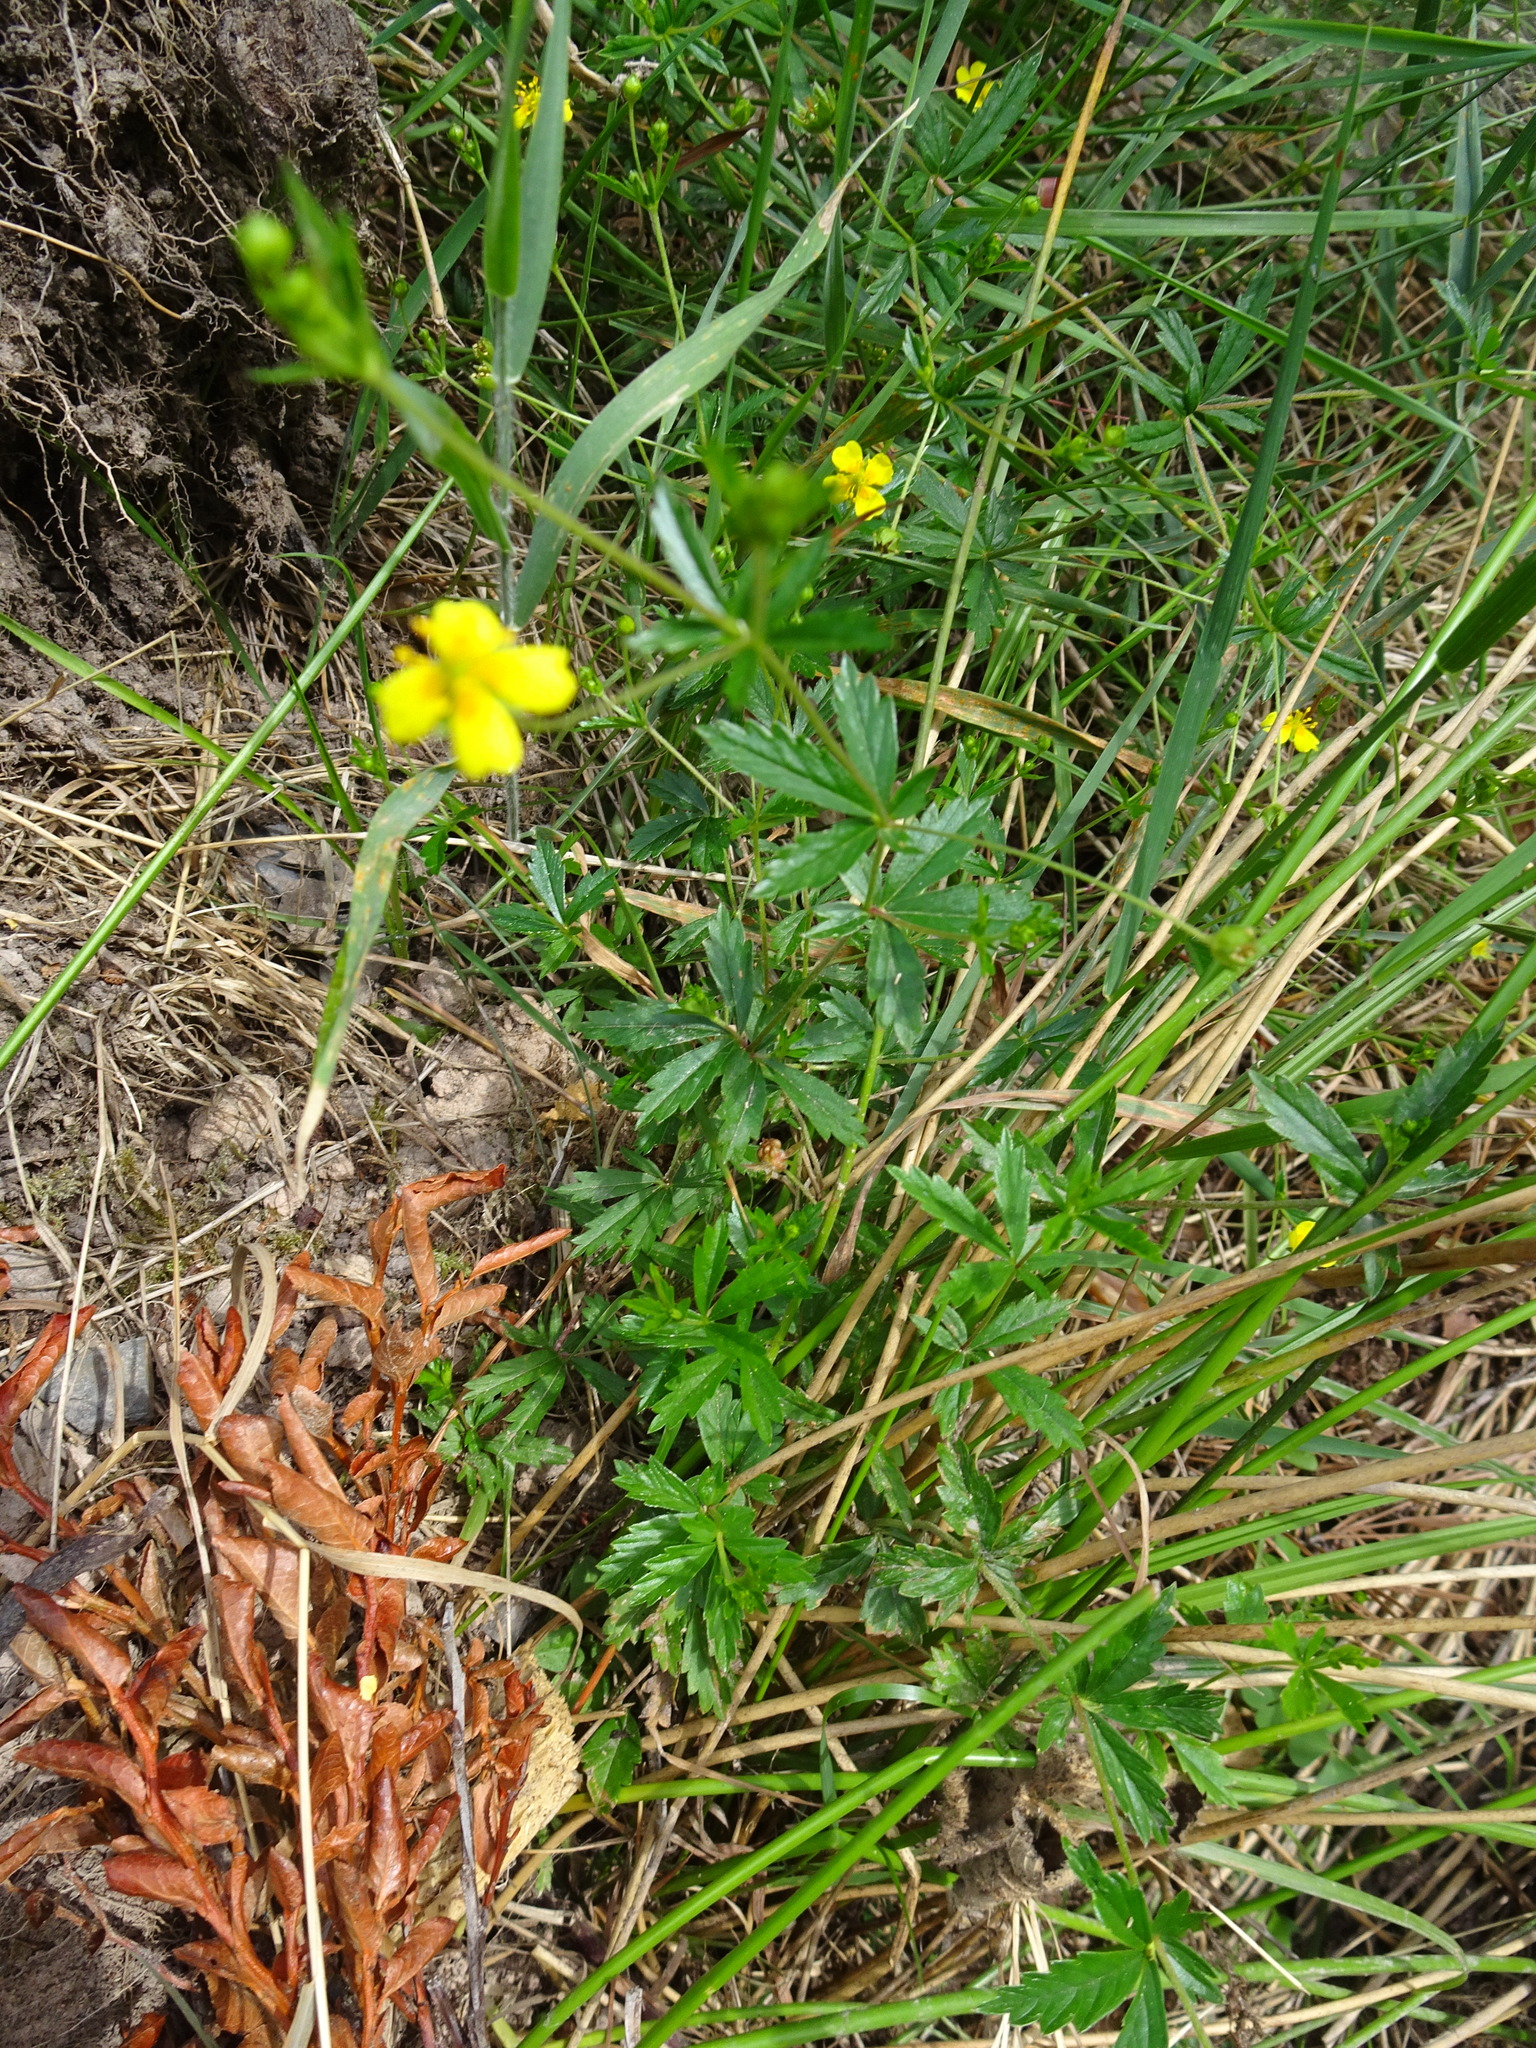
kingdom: Plantae
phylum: Tracheophyta
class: Magnoliopsida
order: Rosales
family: Rosaceae
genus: Potentilla
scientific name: Potentilla erecta
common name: Tormentil
